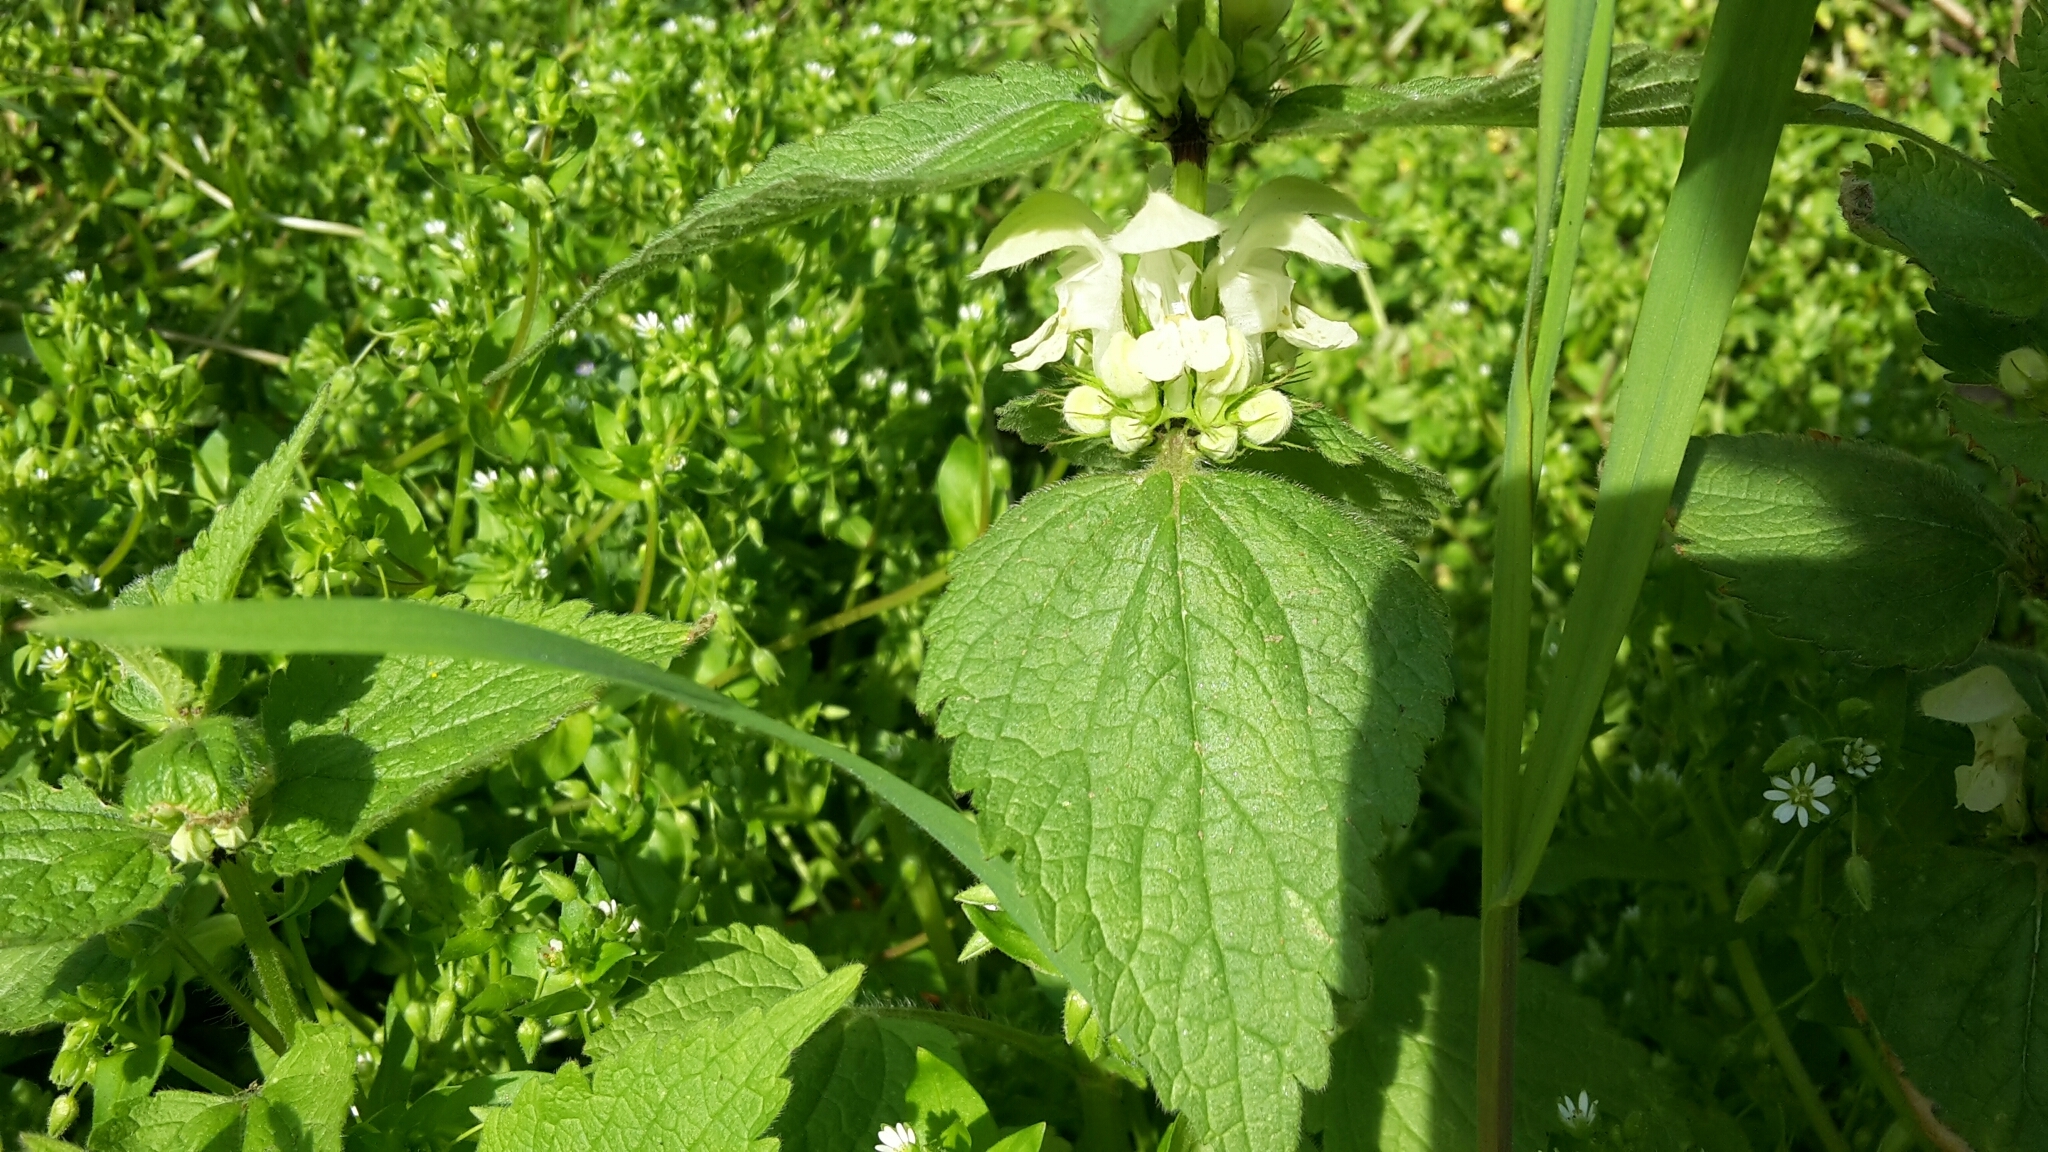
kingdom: Plantae
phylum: Tracheophyta
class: Magnoliopsida
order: Lamiales
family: Lamiaceae
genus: Lamium
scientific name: Lamium album
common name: White dead-nettle
